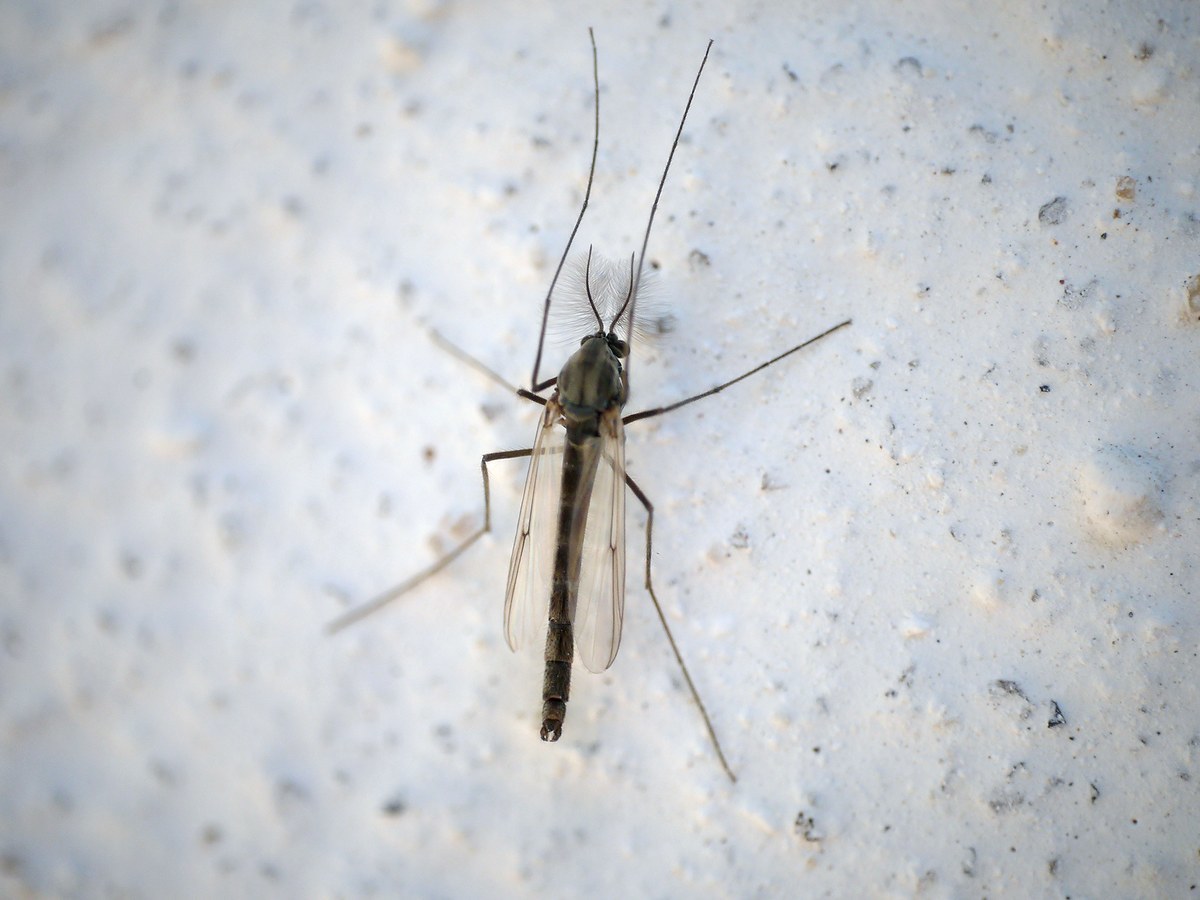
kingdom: Animalia
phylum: Arthropoda
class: Insecta
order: Diptera
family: Chironomidae
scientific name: Chironomidae
